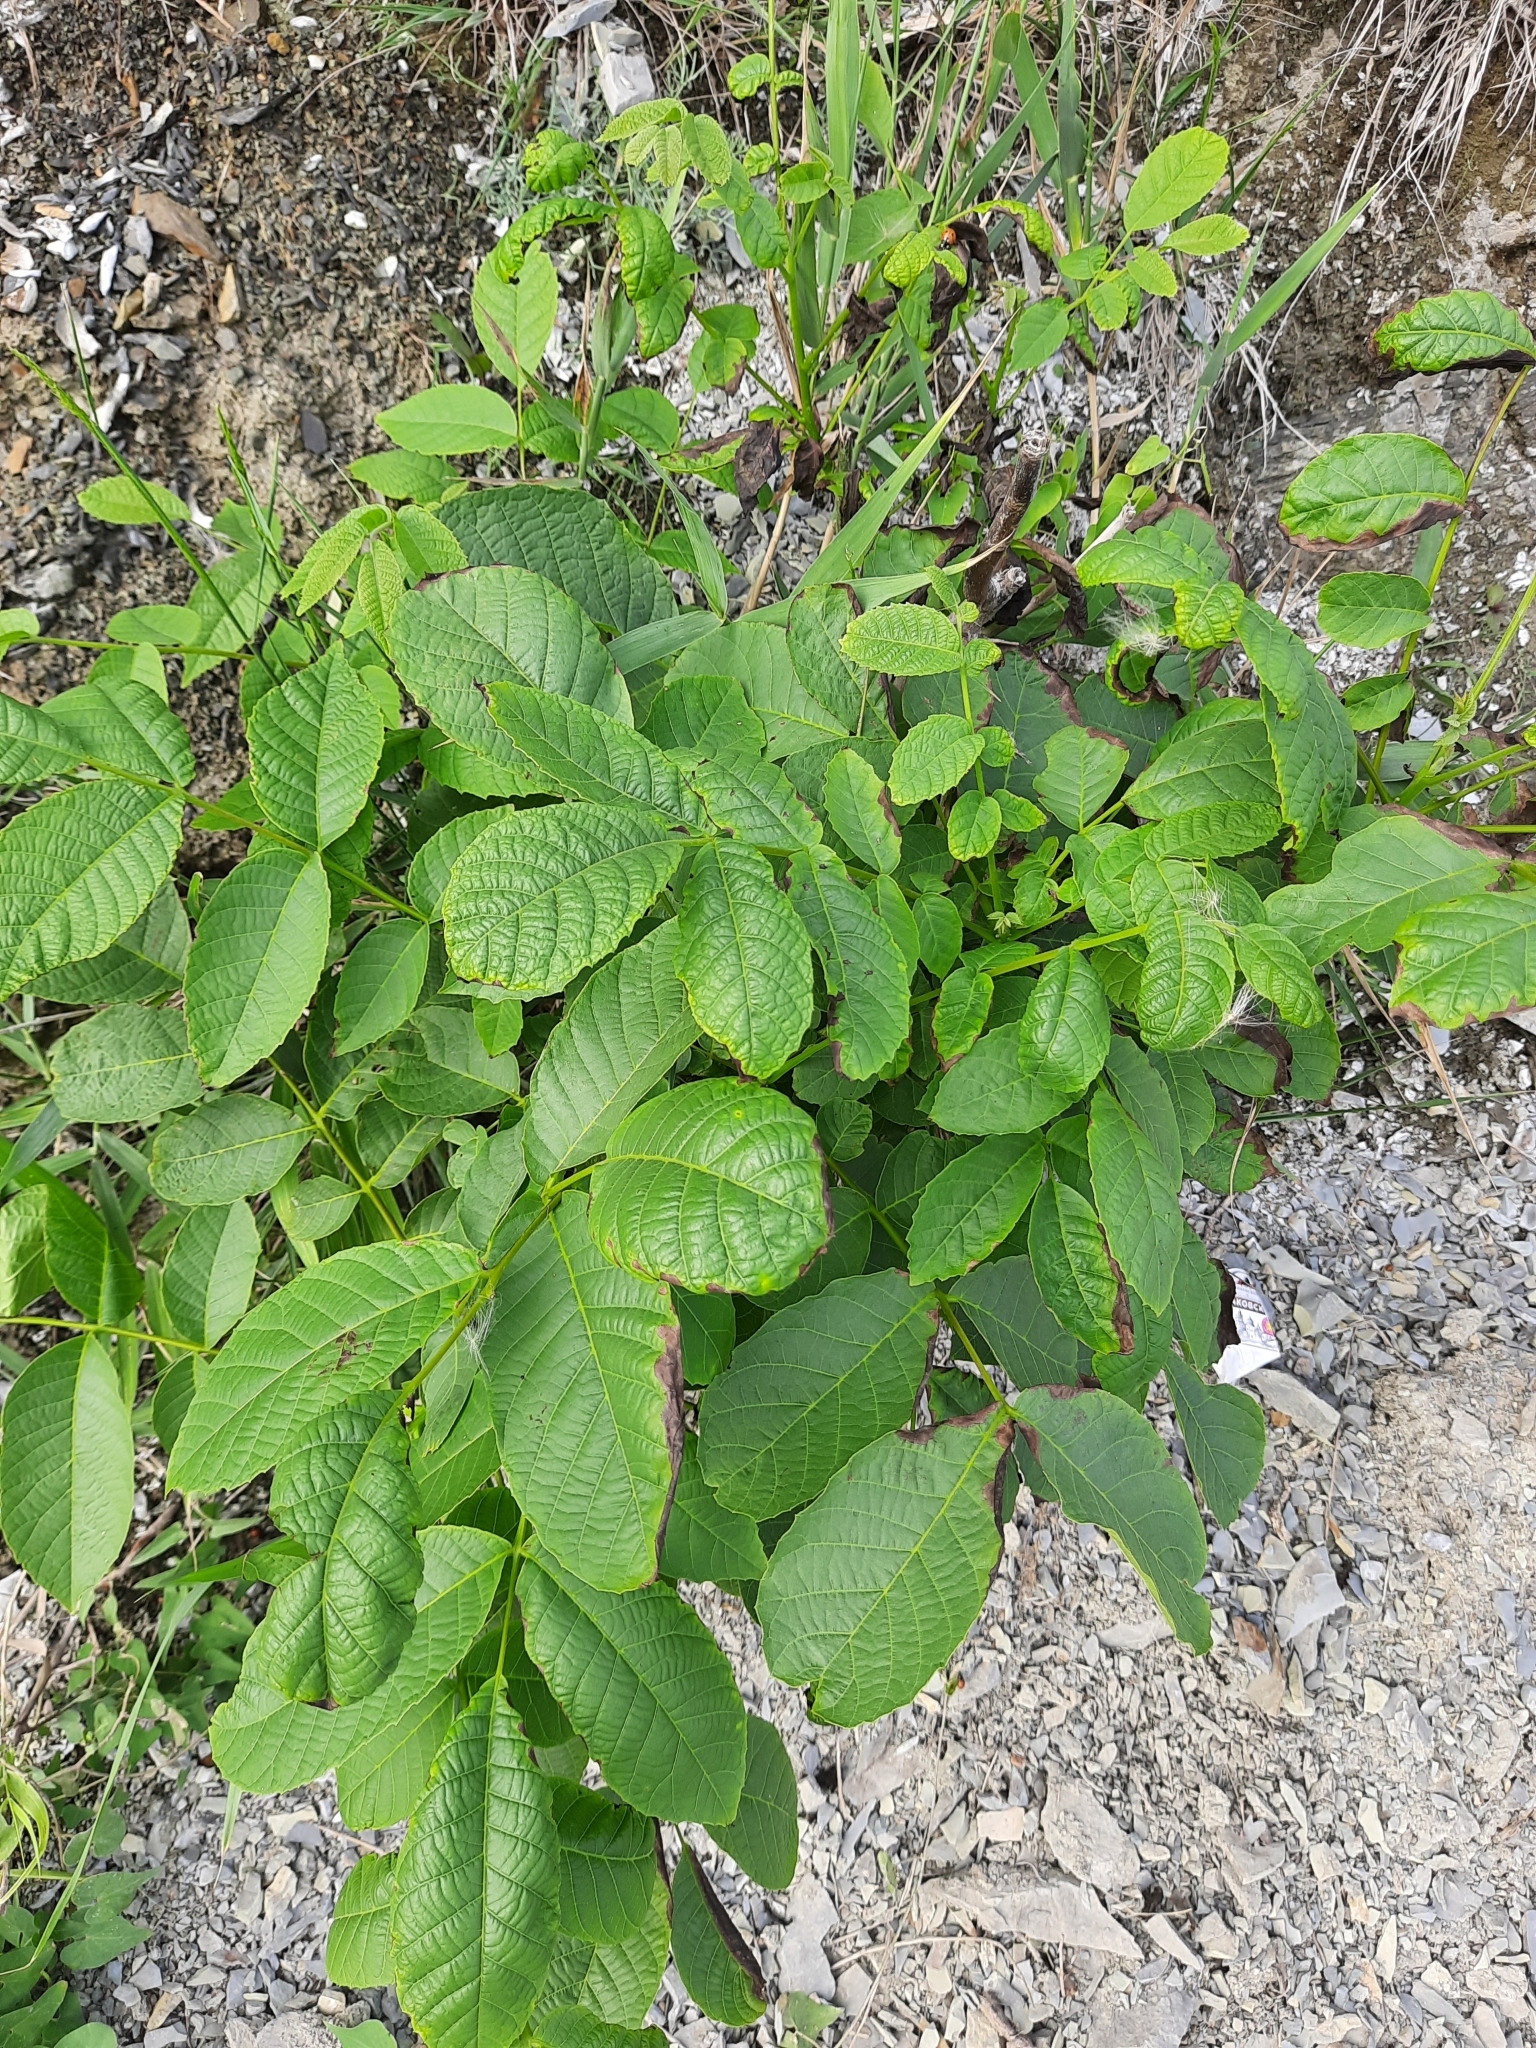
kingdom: Plantae
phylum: Tracheophyta
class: Magnoliopsida
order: Fagales
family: Juglandaceae
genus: Juglans
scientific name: Juglans regia
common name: Walnut
